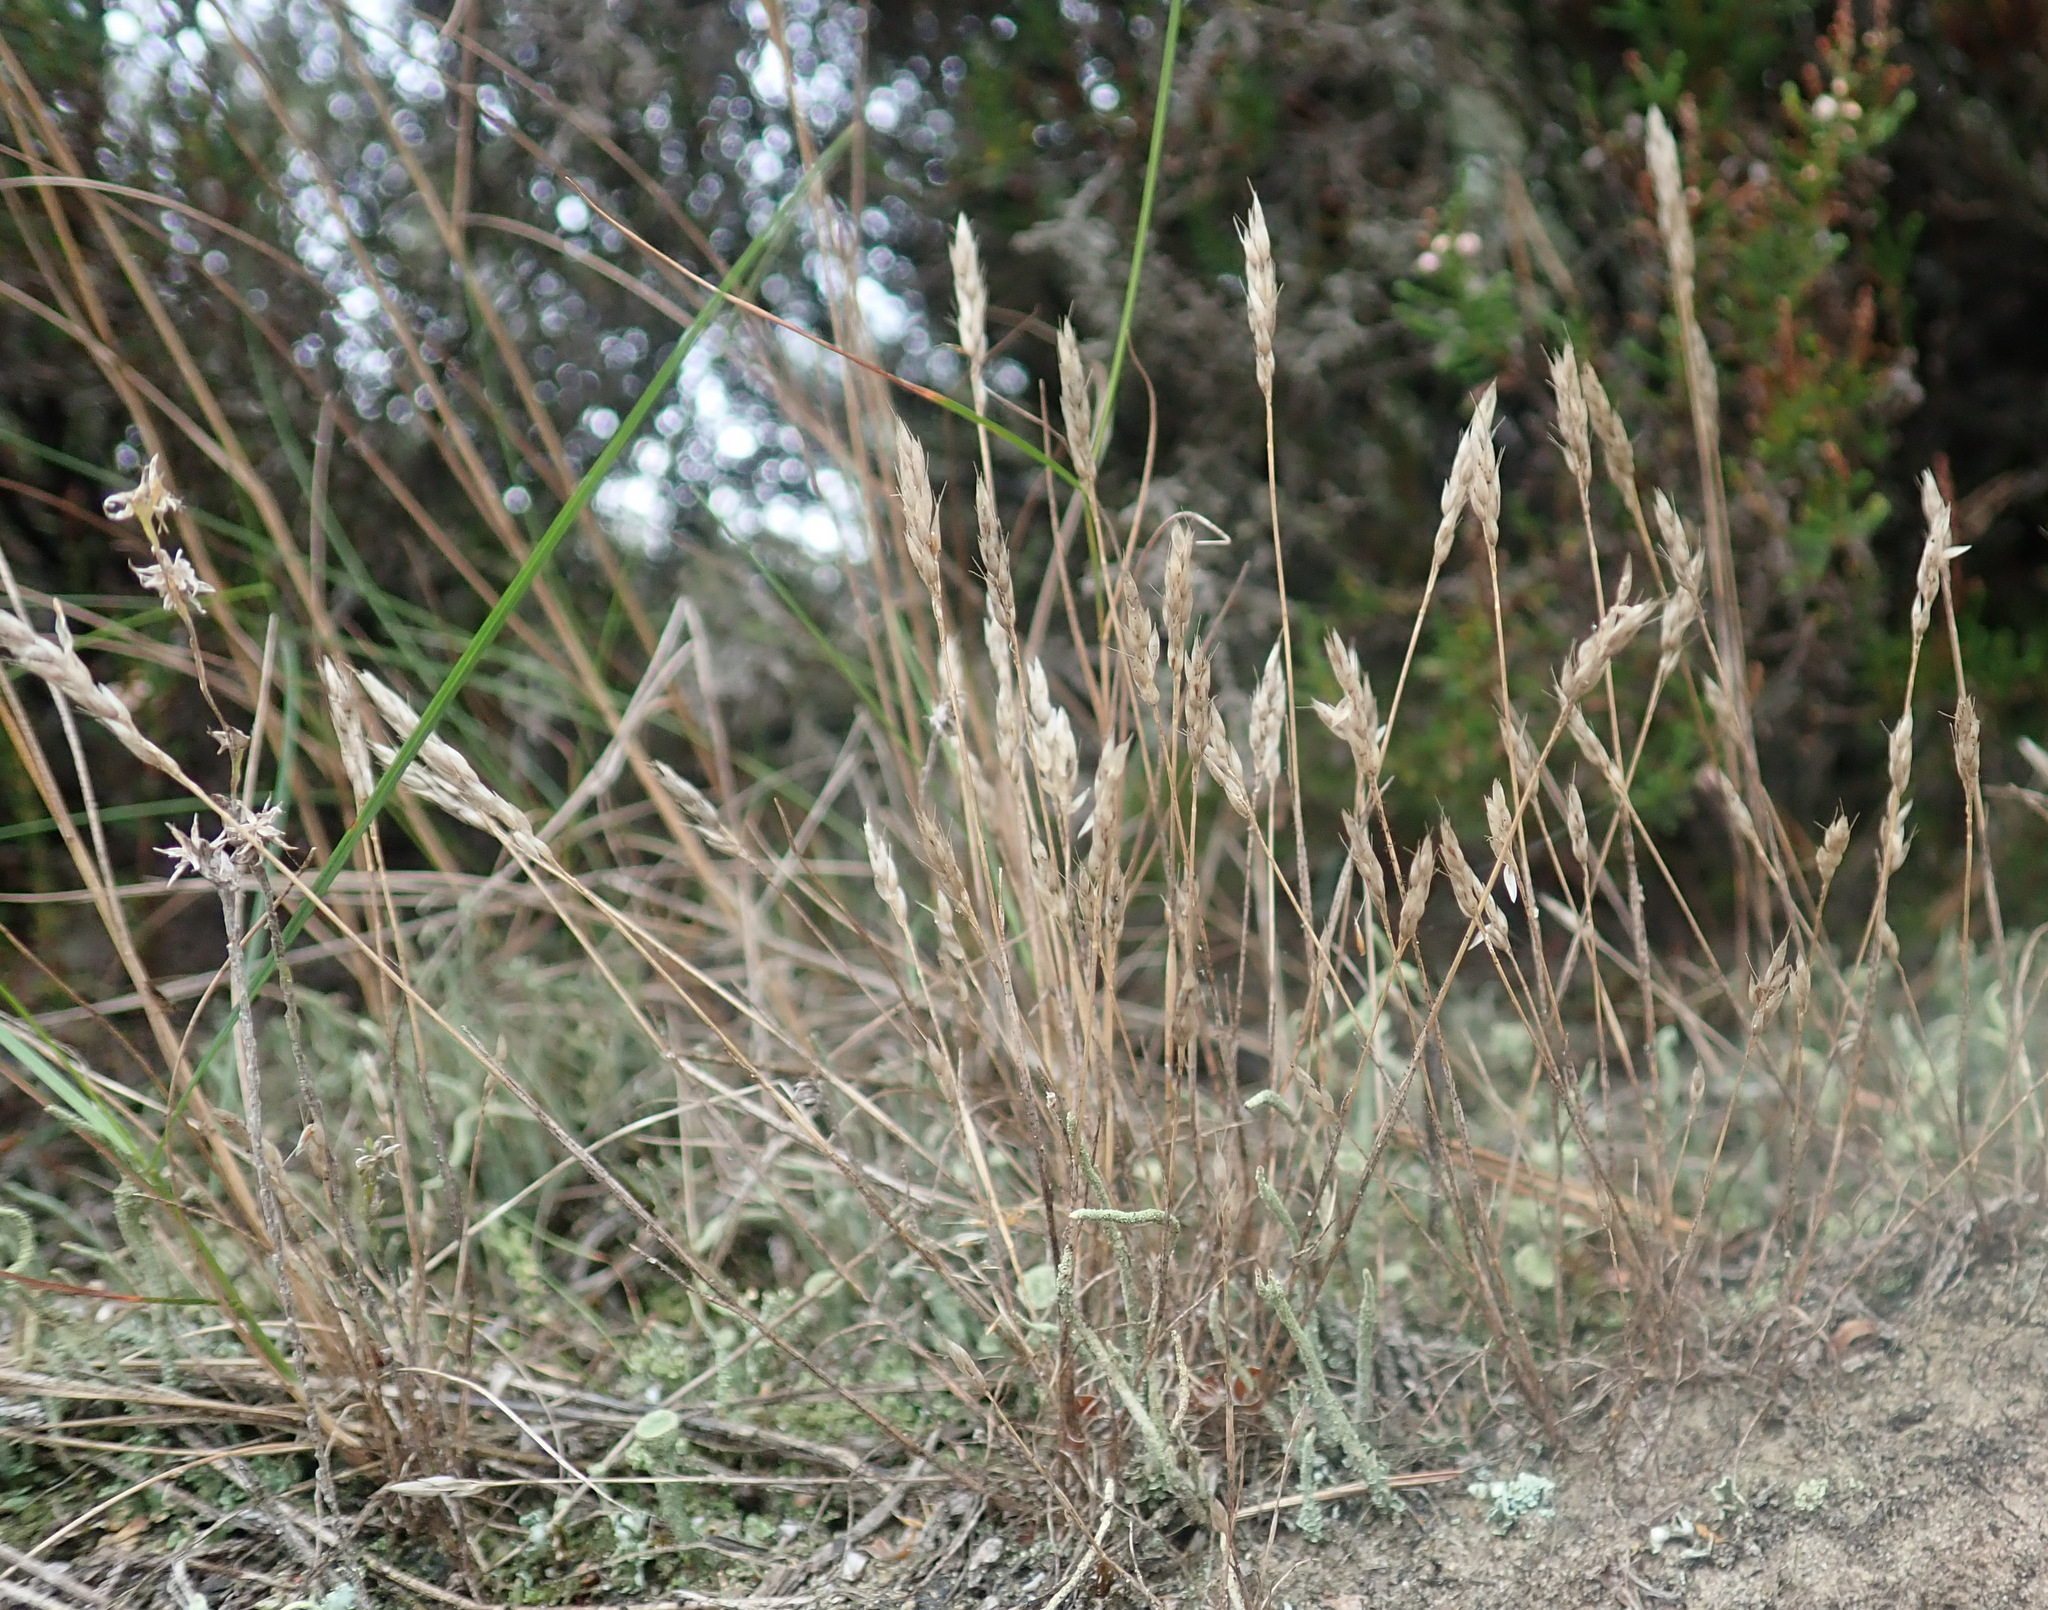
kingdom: Plantae
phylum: Tracheophyta
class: Liliopsida
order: Poales
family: Poaceae
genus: Aira
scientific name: Aira praecox
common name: Early hair-grass
